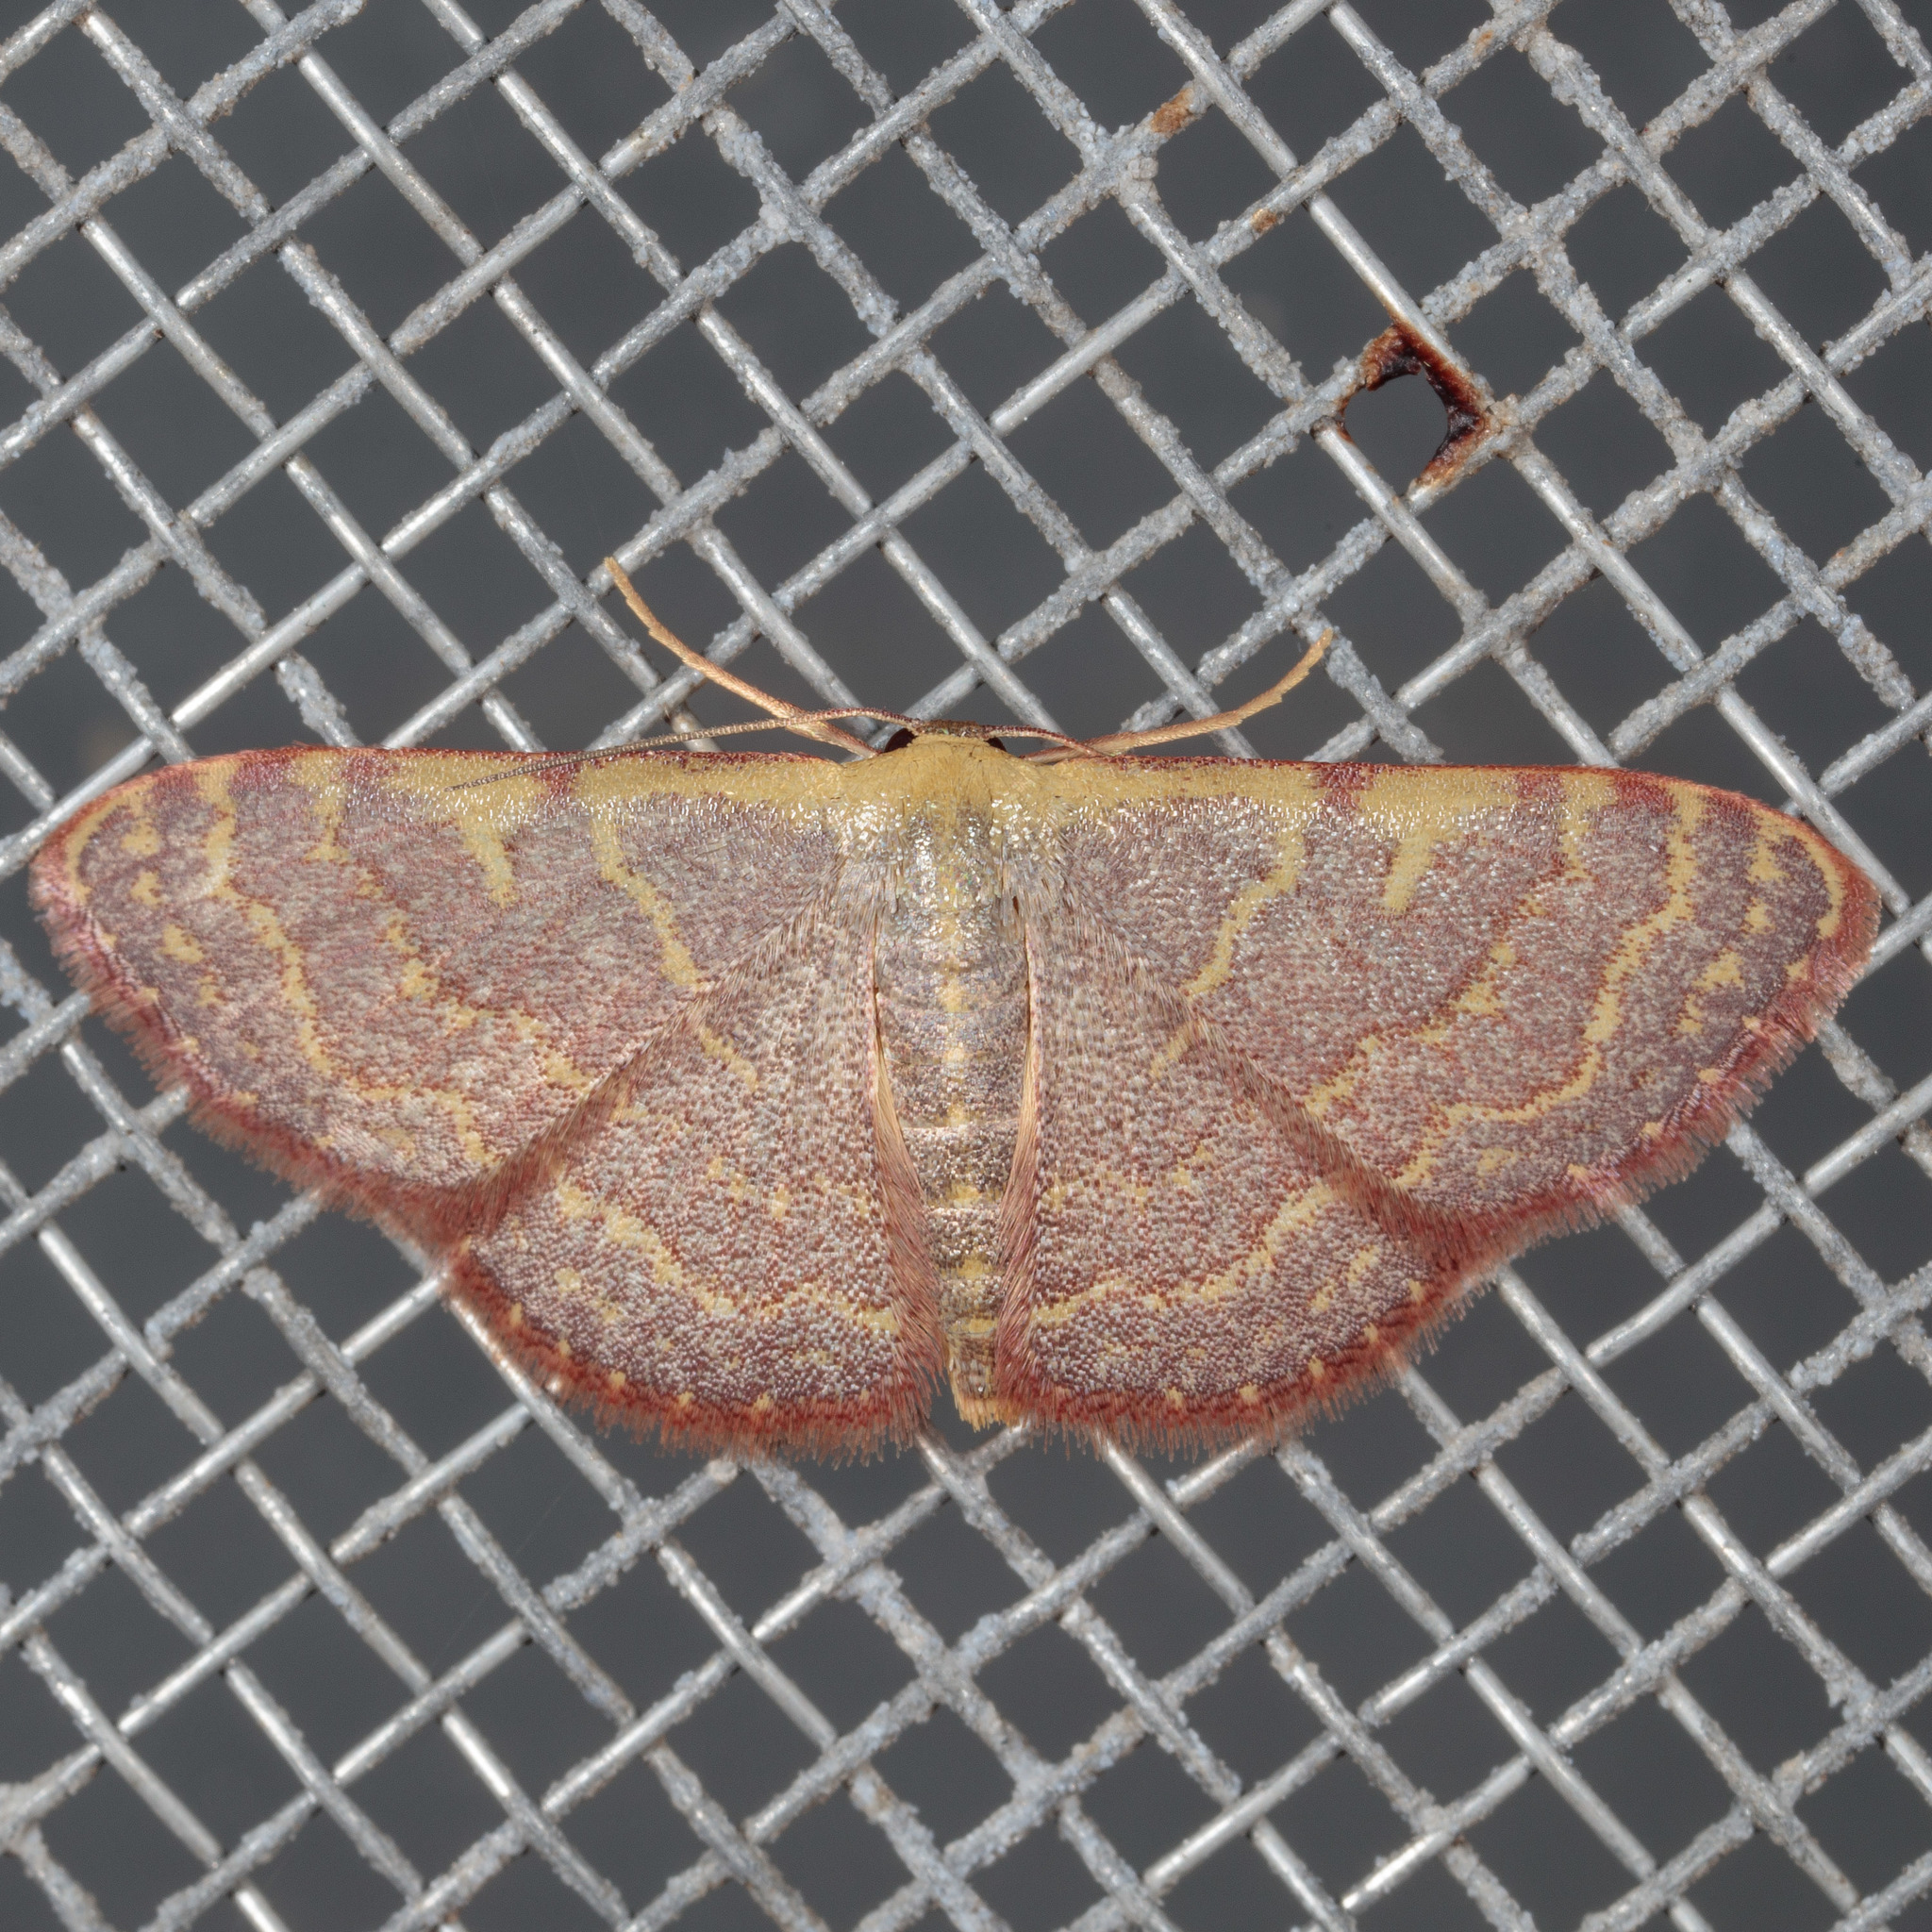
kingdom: Animalia
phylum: Arthropoda
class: Insecta
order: Lepidoptera
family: Geometridae
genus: Leptostales
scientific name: Leptostales pannaria
